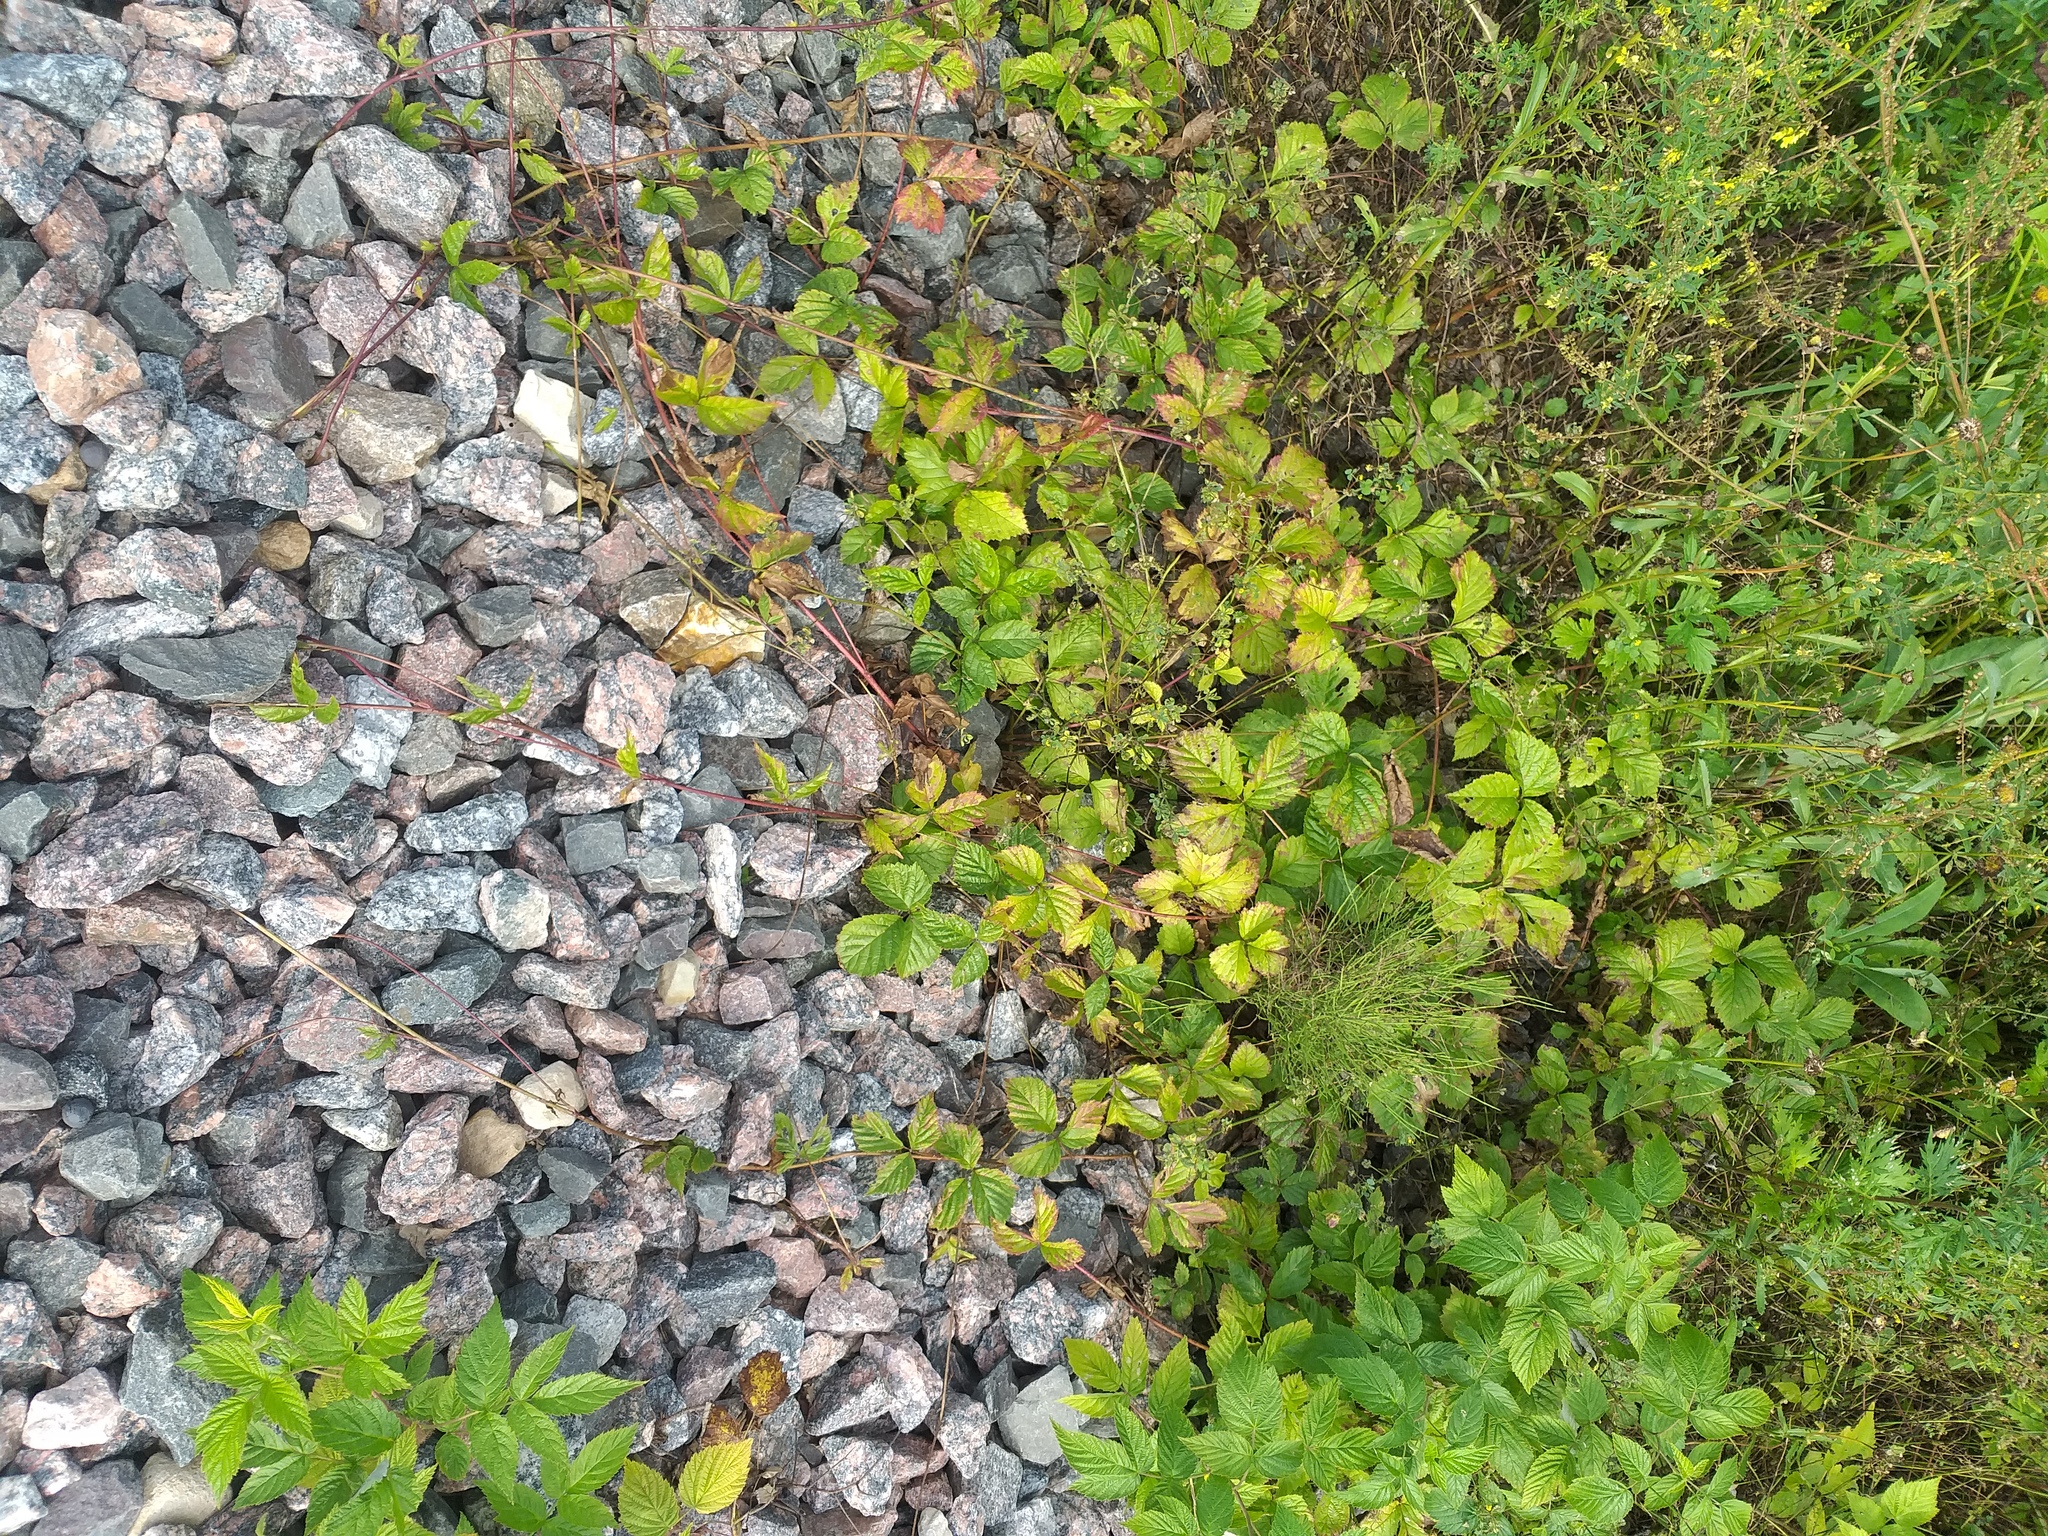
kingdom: Plantae
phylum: Tracheophyta
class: Magnoliopsida
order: Rosales
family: Rosaceae
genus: Rubus
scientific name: Rubus saxatilis
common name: Stone bramble
